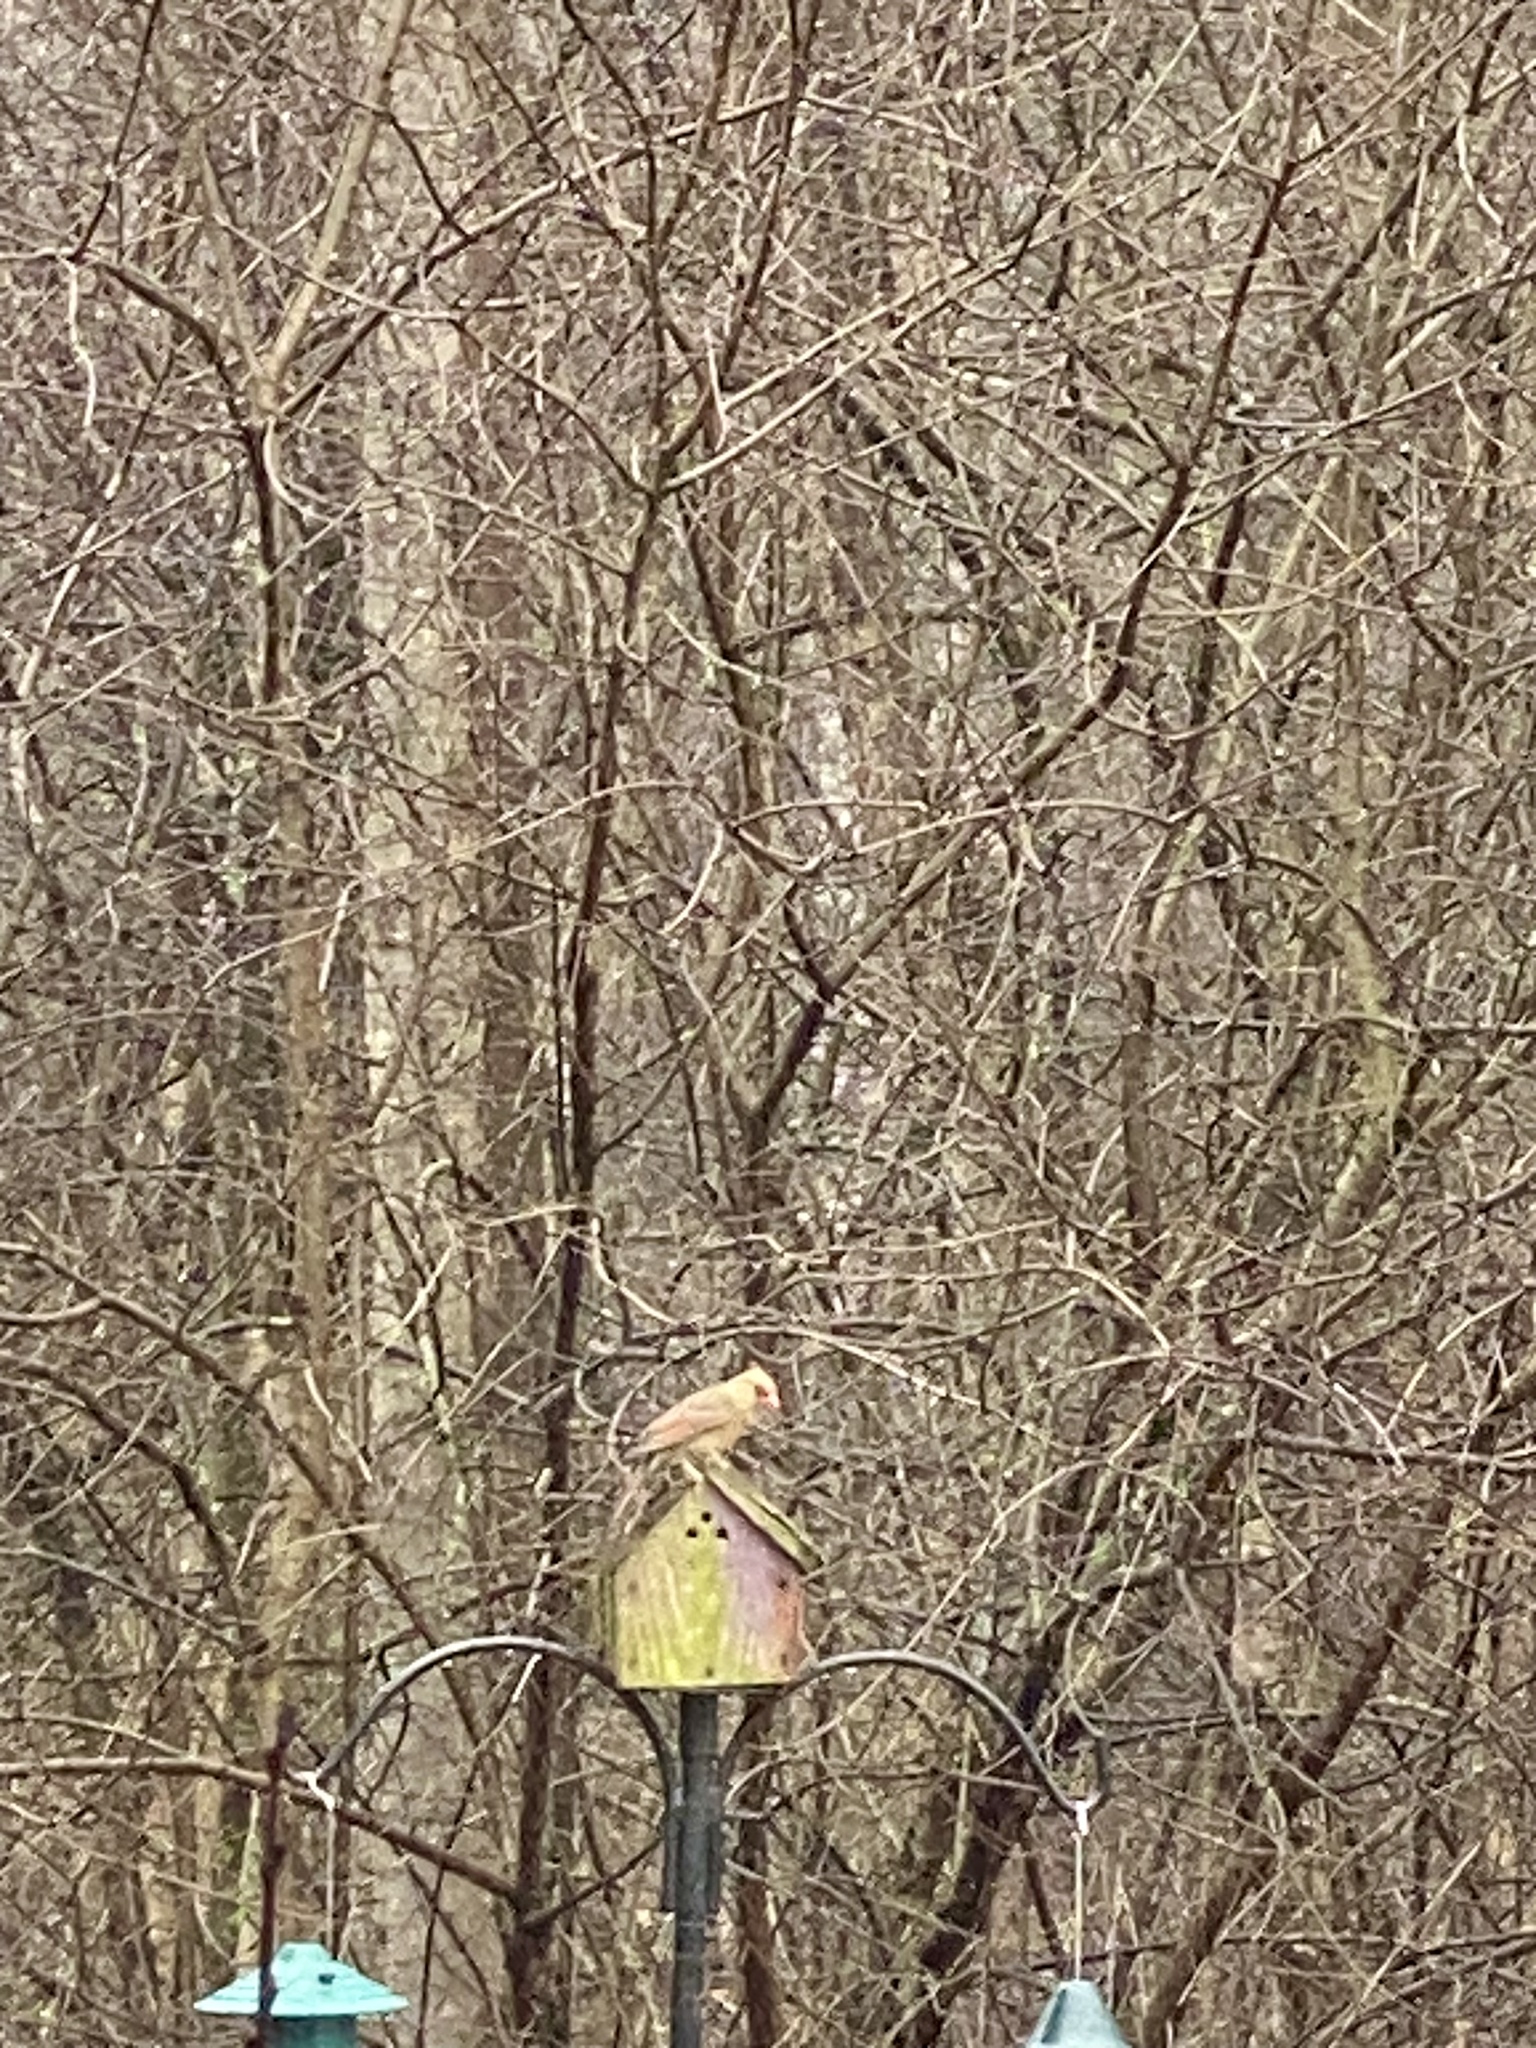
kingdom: Animalia
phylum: Chordata
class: Aves
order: Passeriformes
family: Cardinalidae
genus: Cardinalis
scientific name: Cardinalis cardinalis
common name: Northern cardinal
